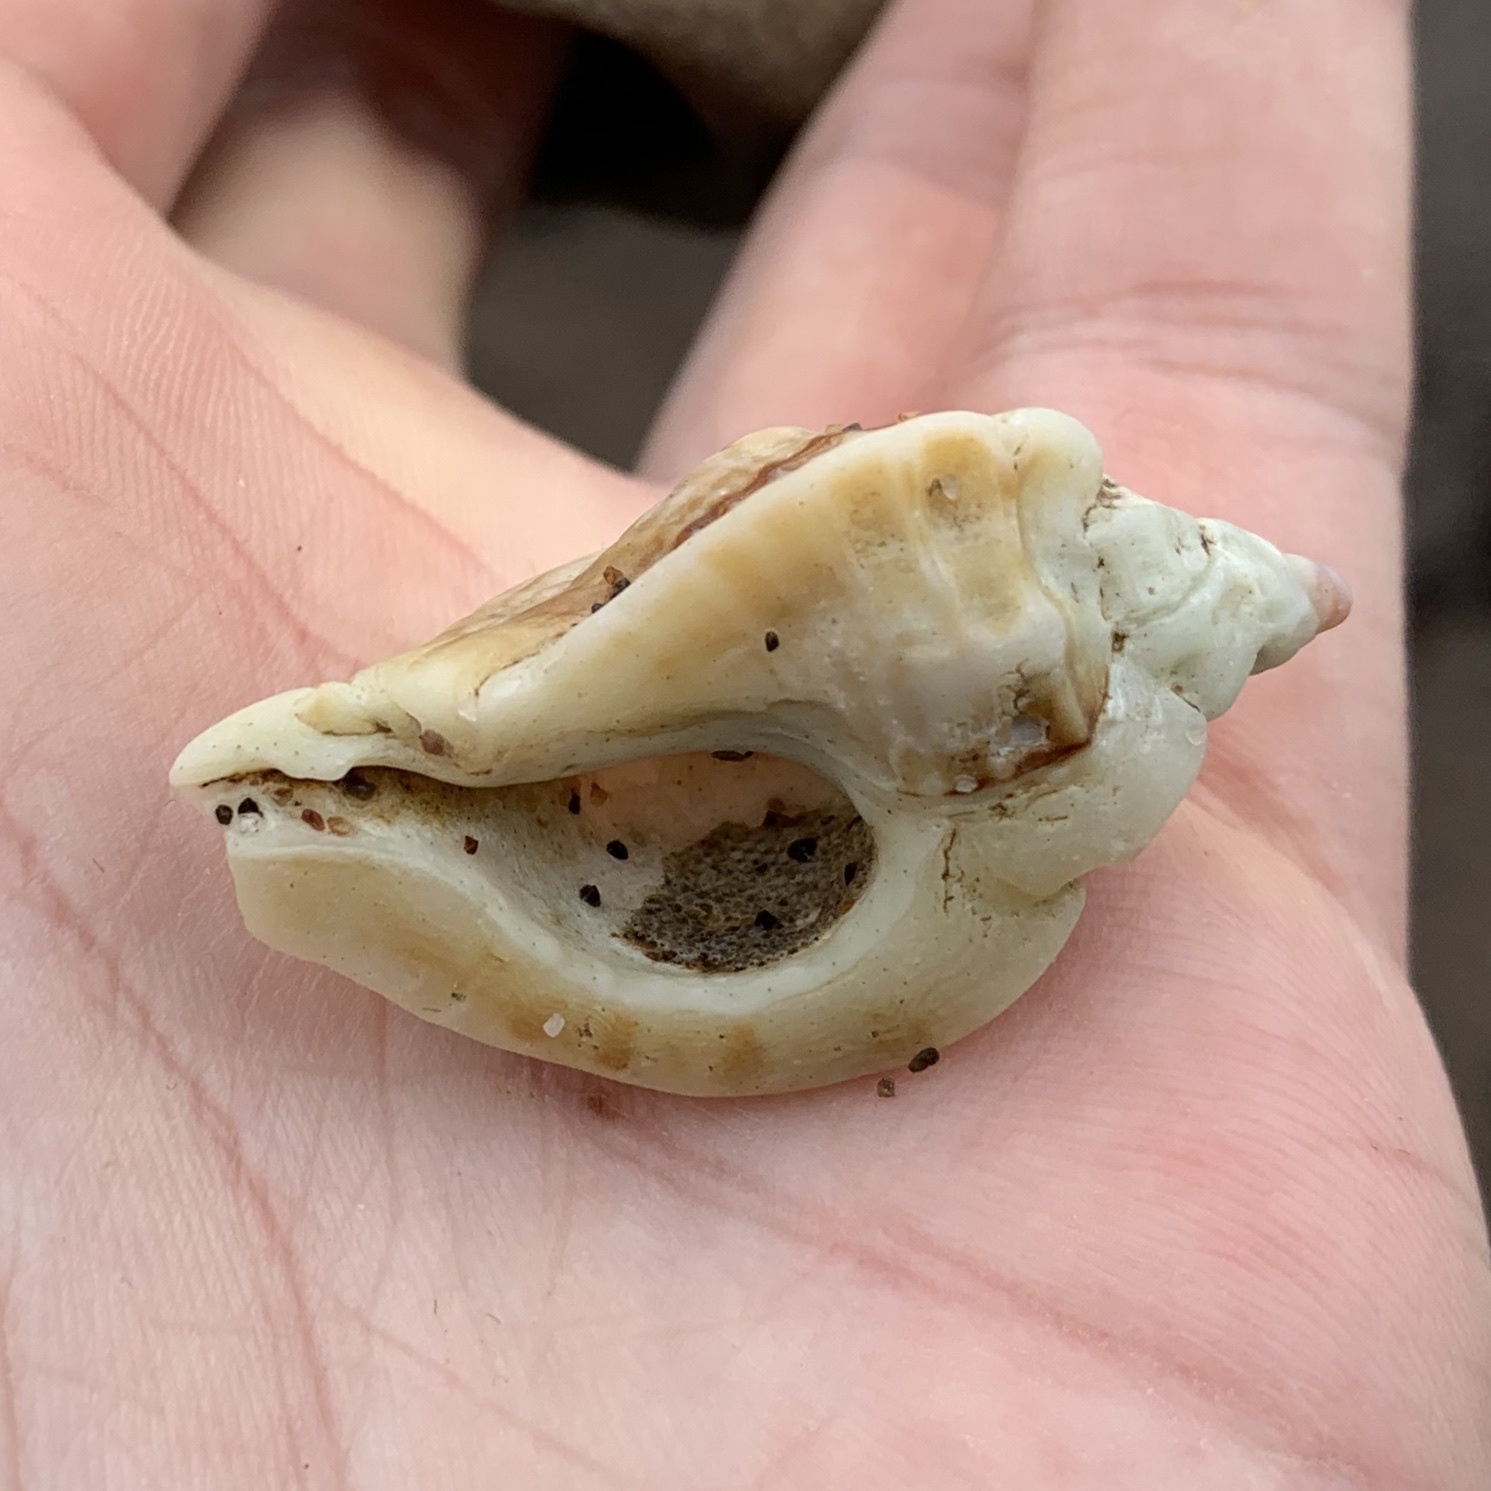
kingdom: Animalia
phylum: Mollusca
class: Gastropoda
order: Neogastropoda
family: Muricidae
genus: Ceratostoma
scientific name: Ceratostoma foliatum
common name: Foliate thorn purpura
